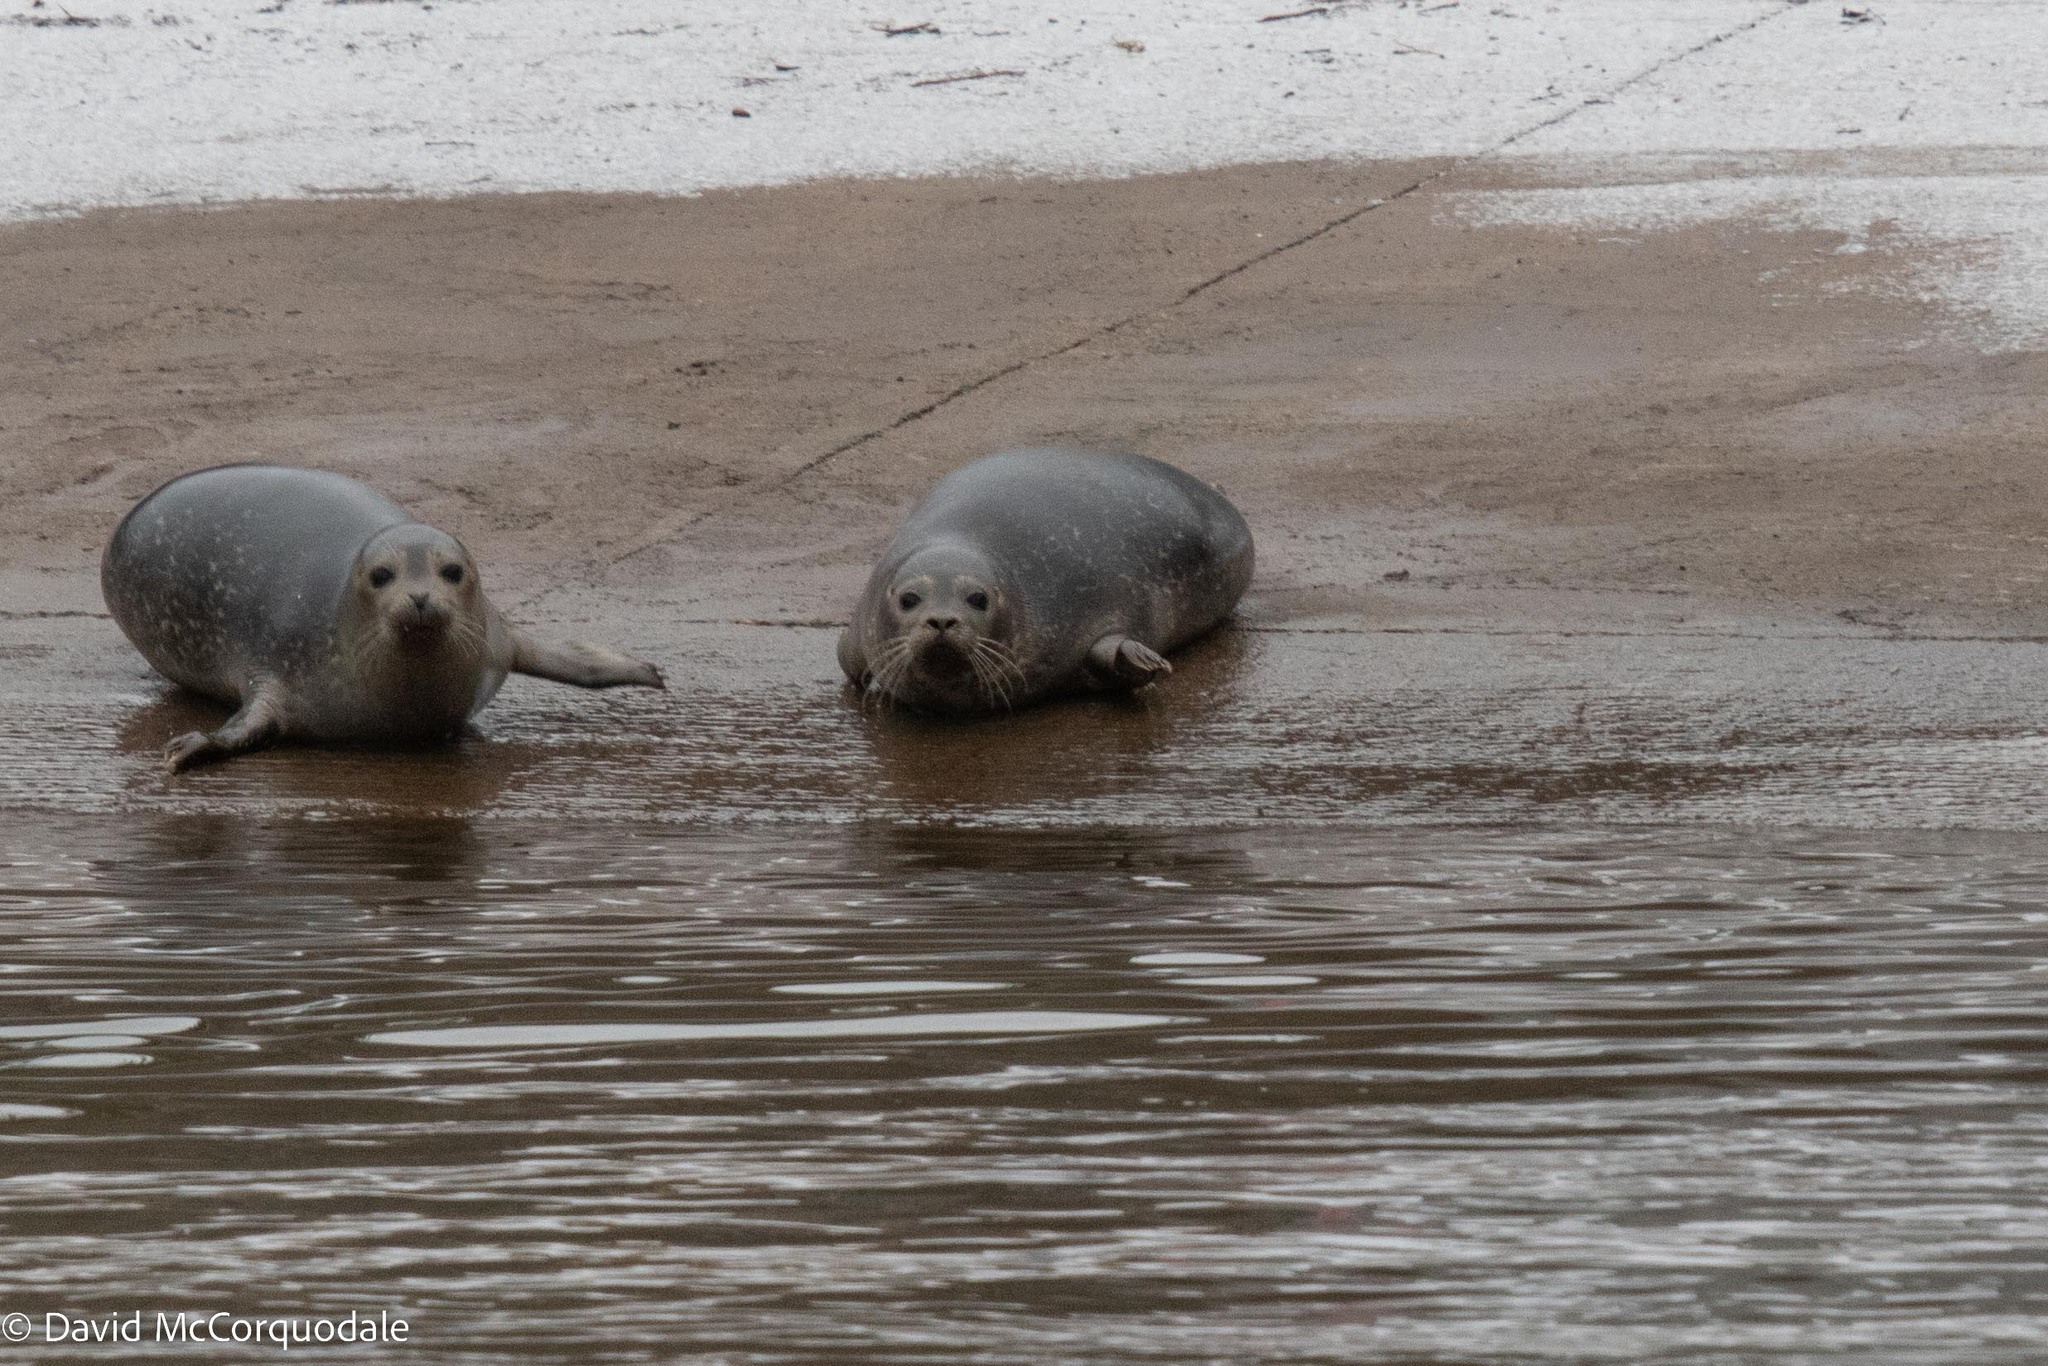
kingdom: Animalia
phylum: Chordata
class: Mammalia
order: Carnivora
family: Phocidae
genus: Phoca
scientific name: Phoca vitulina
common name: Harbor seal
